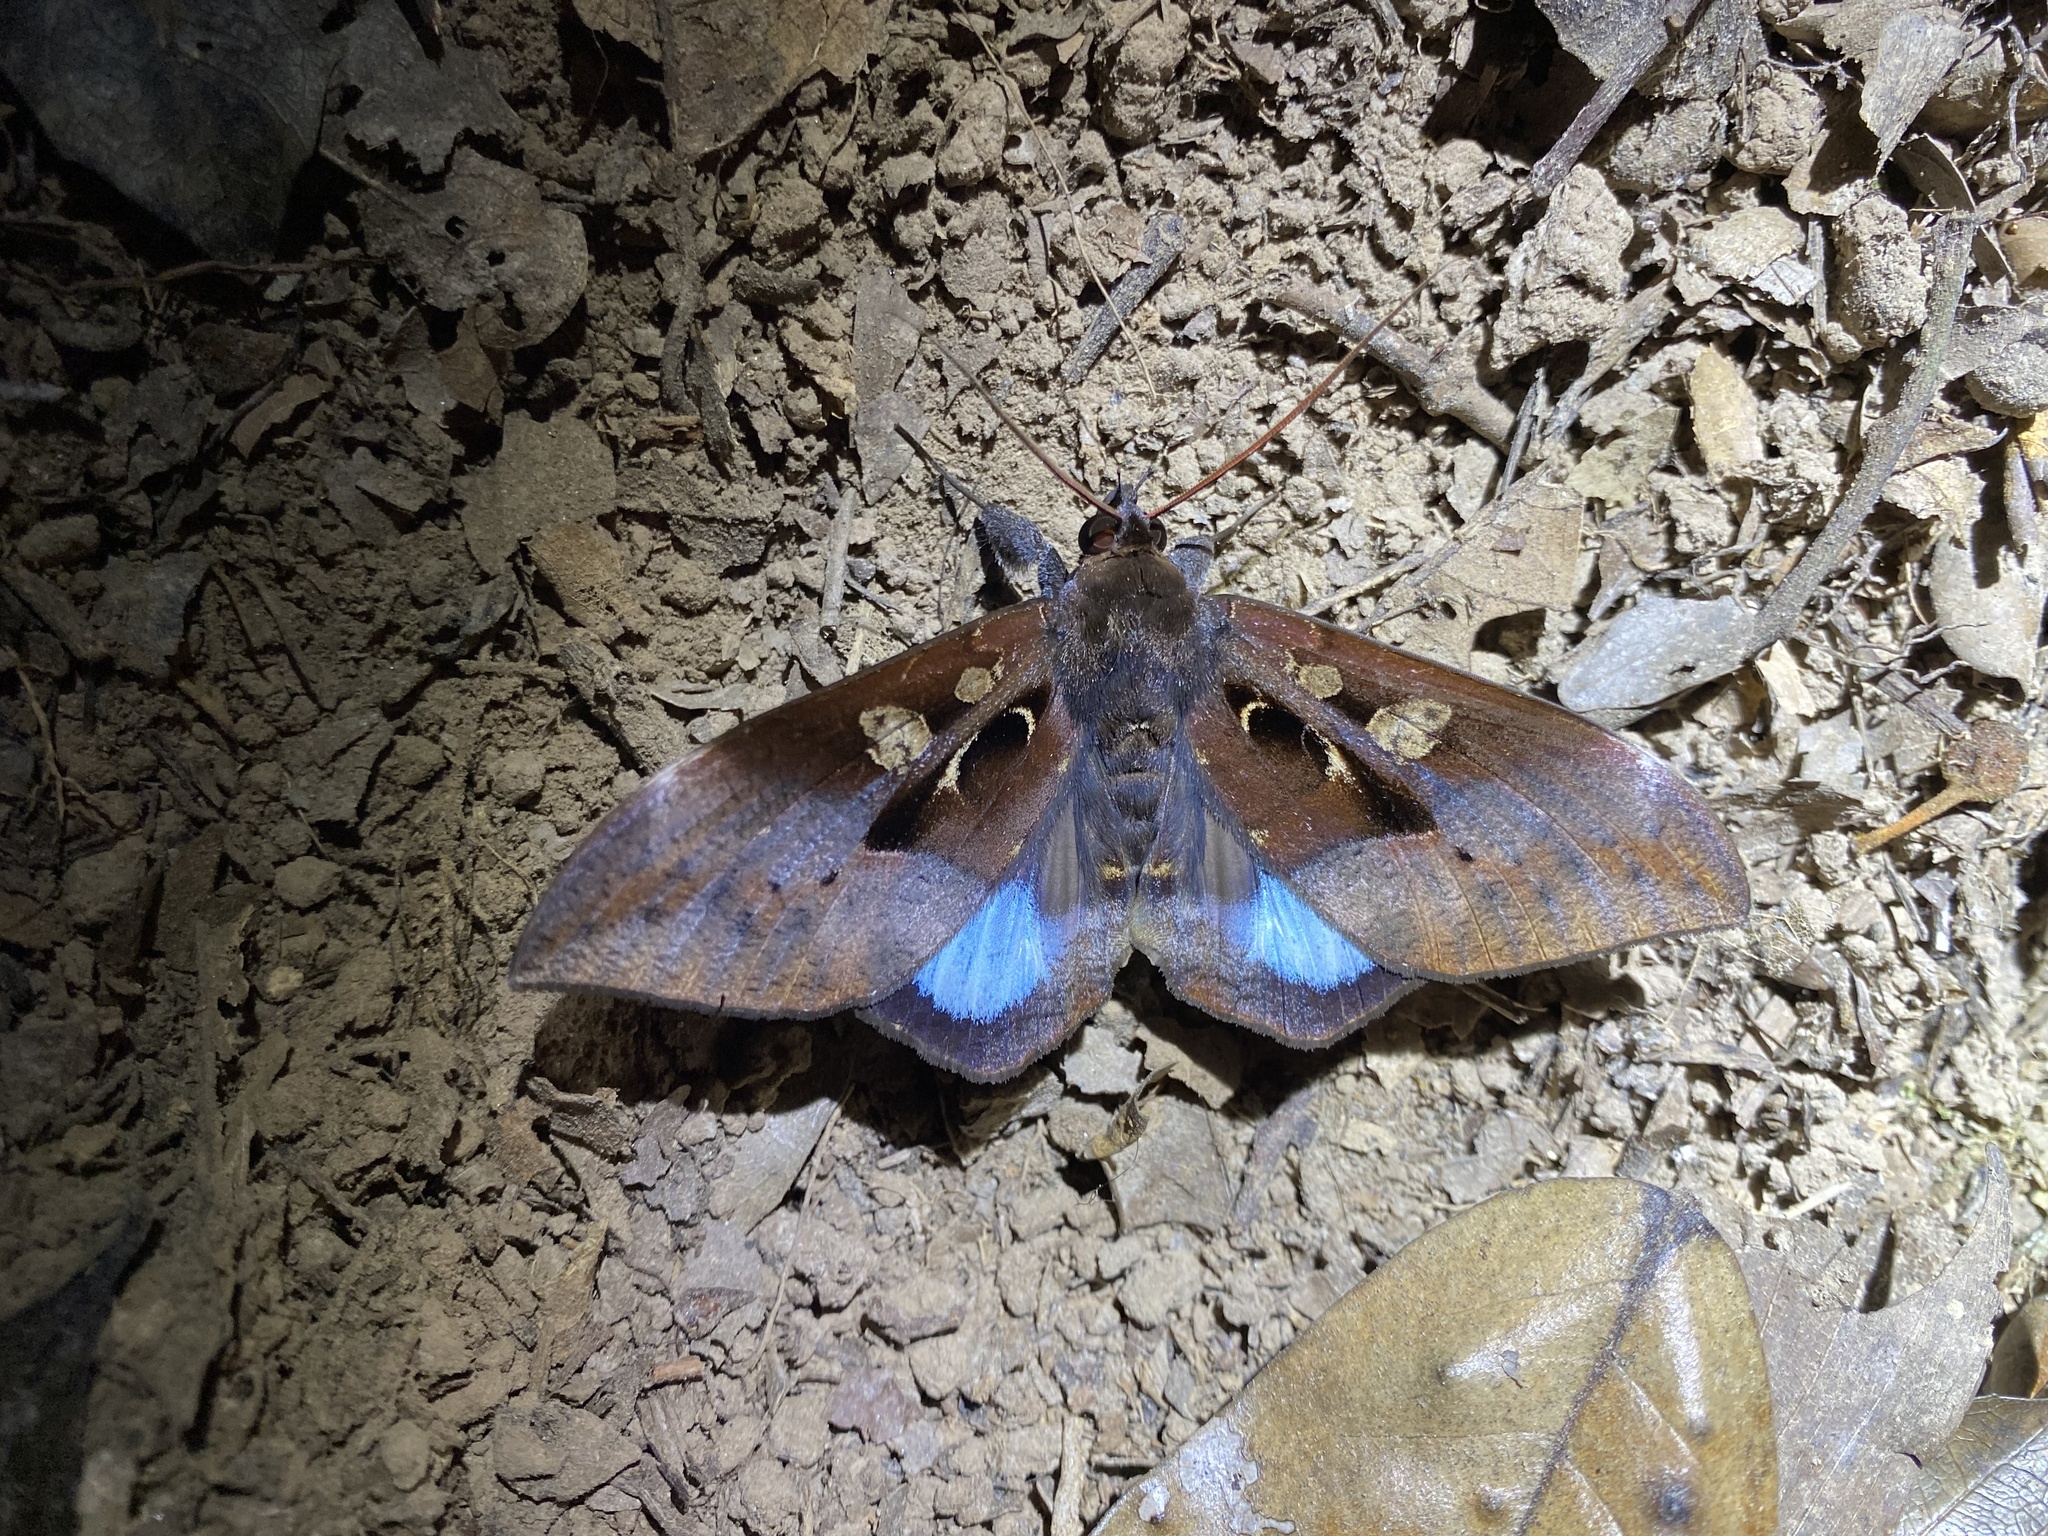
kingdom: Animalia
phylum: Arthropoda
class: Insecta
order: Lepidoptera
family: Erebidae
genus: Ischyja
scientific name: Ischyja manlia
